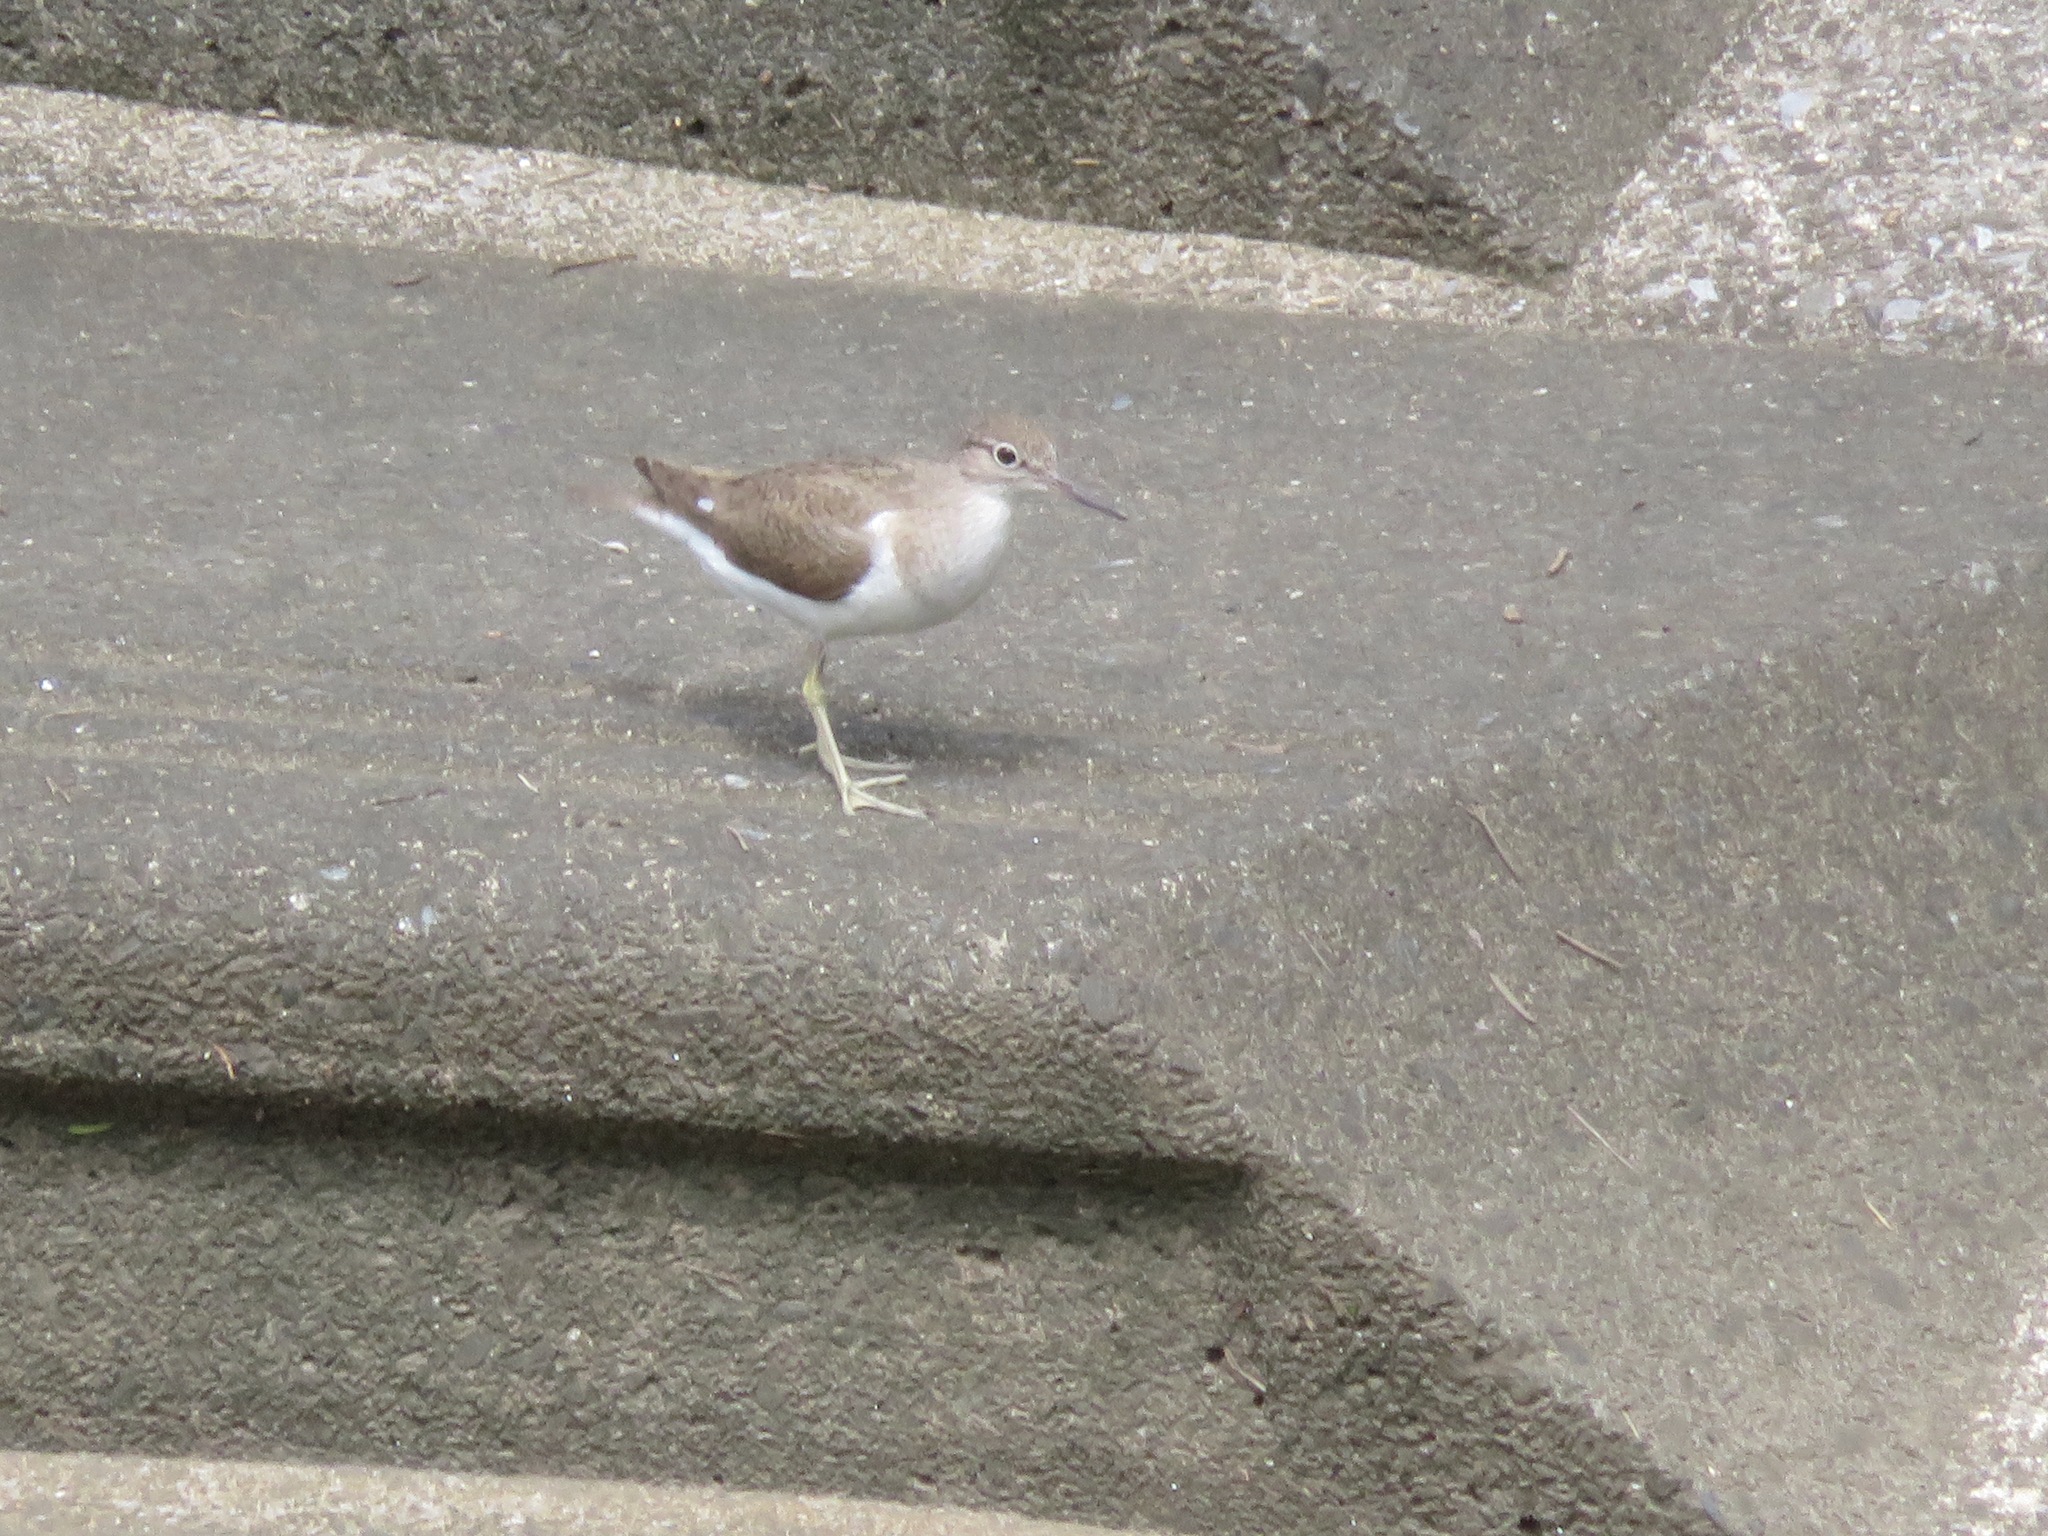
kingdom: Animalia
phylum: Chordata
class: Aves
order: Charadriiformes
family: Scolopacidae
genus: Actitis
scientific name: Actitis hypoleucos
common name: Common sandpiper
